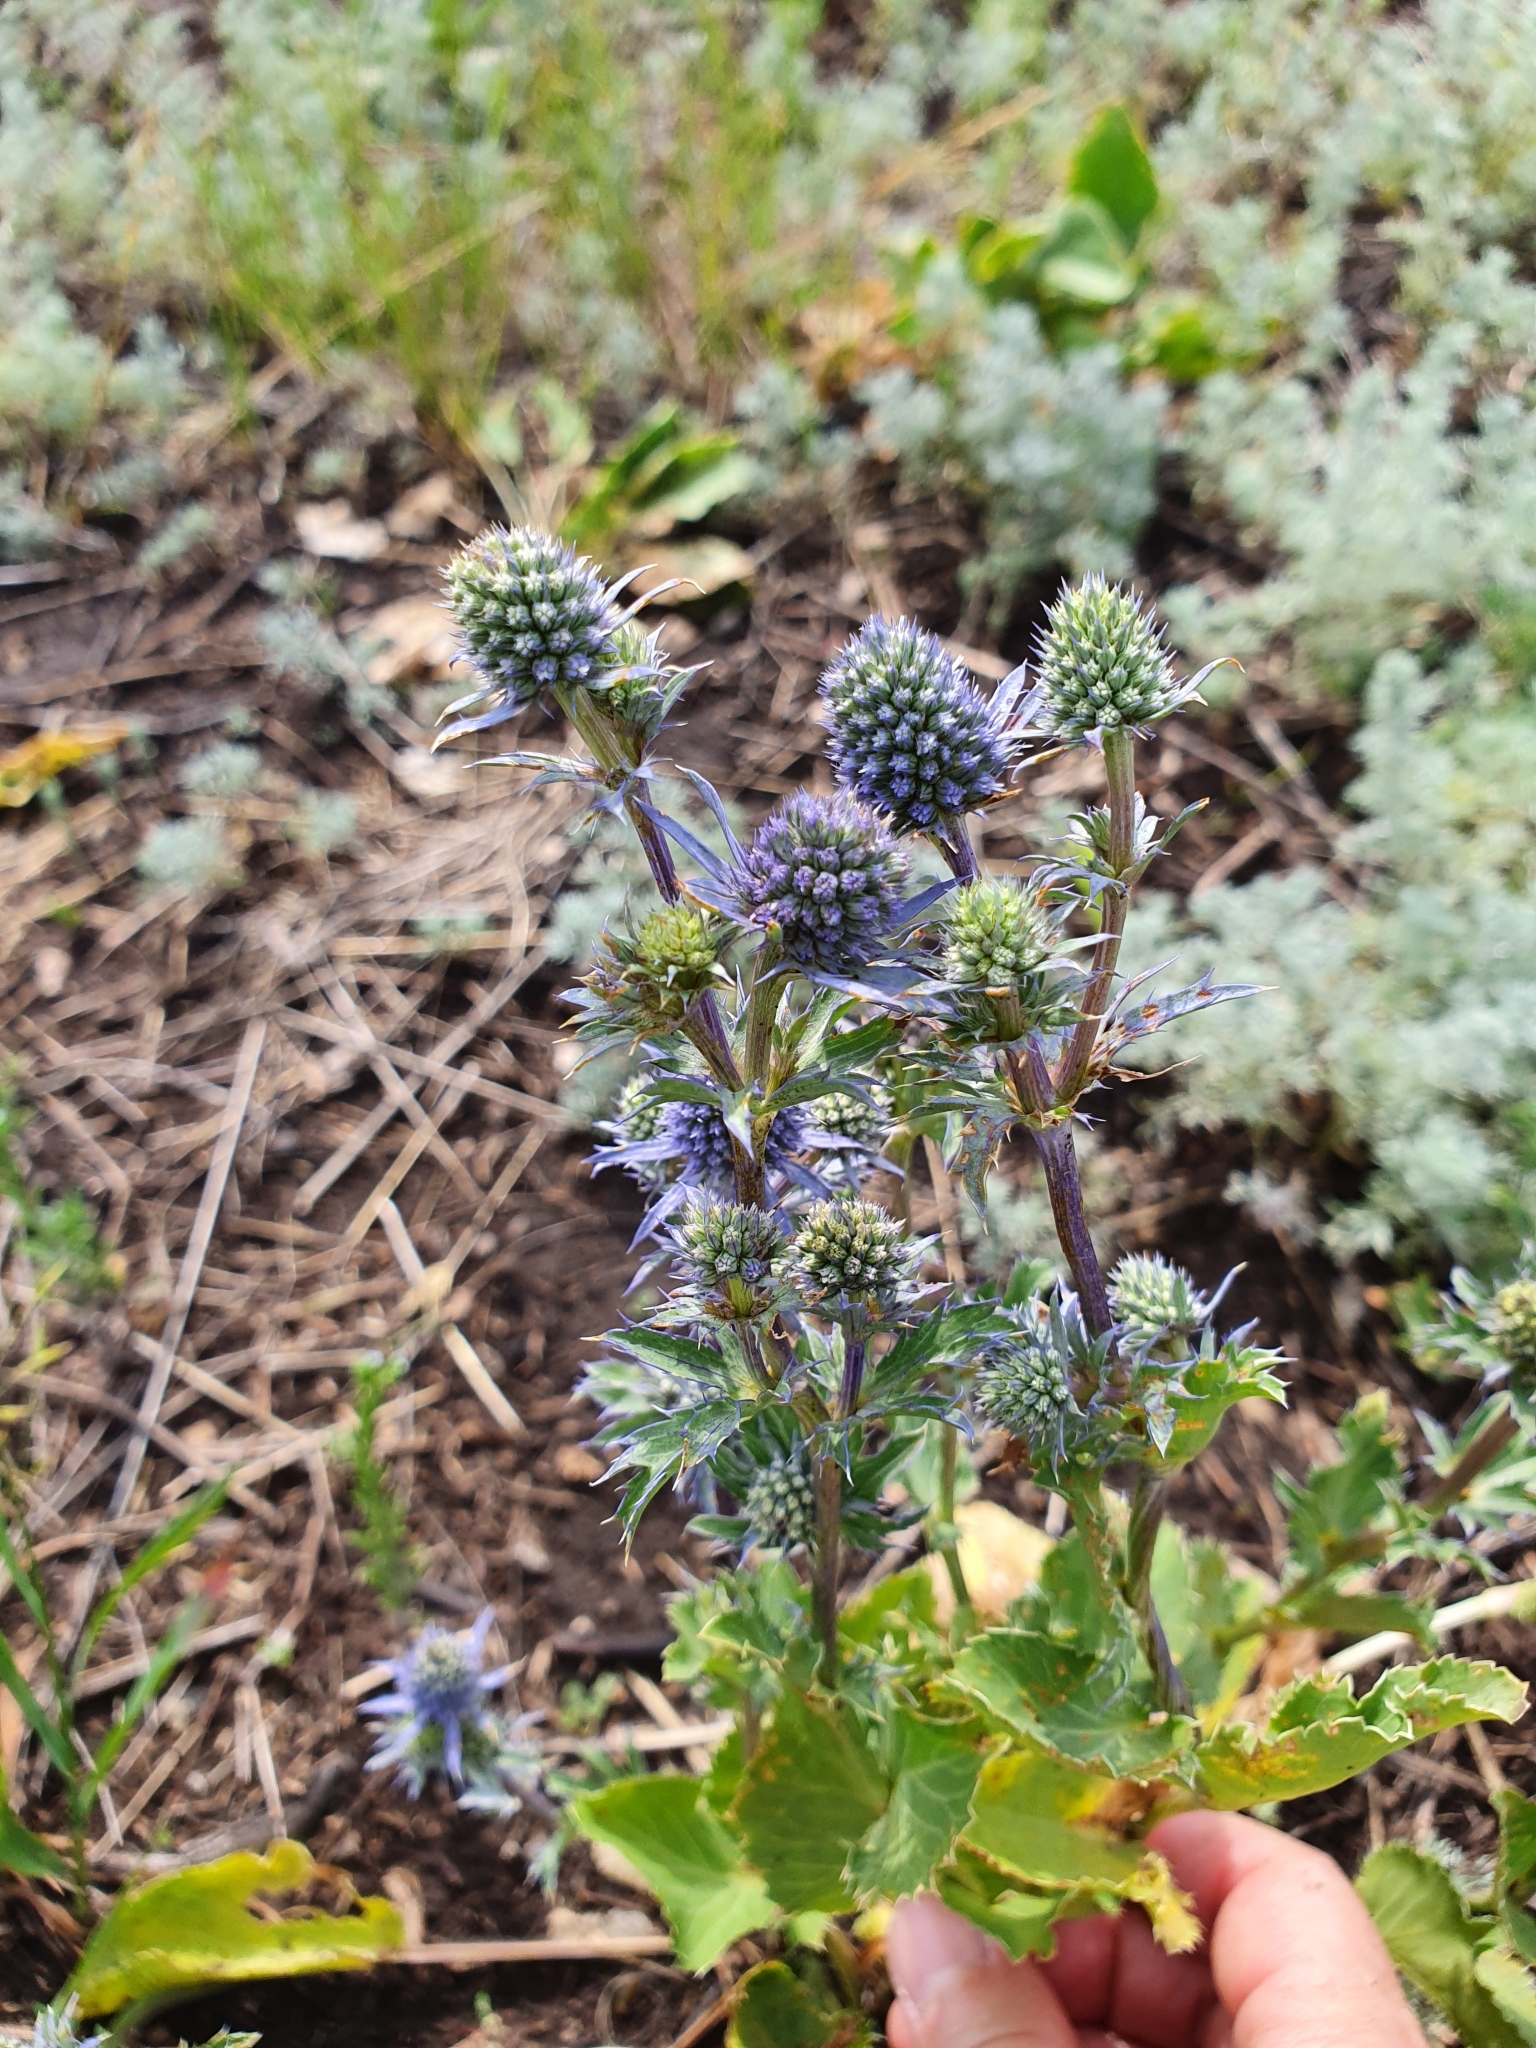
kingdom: Plantae
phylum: Tracheophyta
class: Magnoliopsida
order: Apiales
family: Apiaceae
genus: Eryngium
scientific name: Eryngium planum
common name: Blue eryngo
